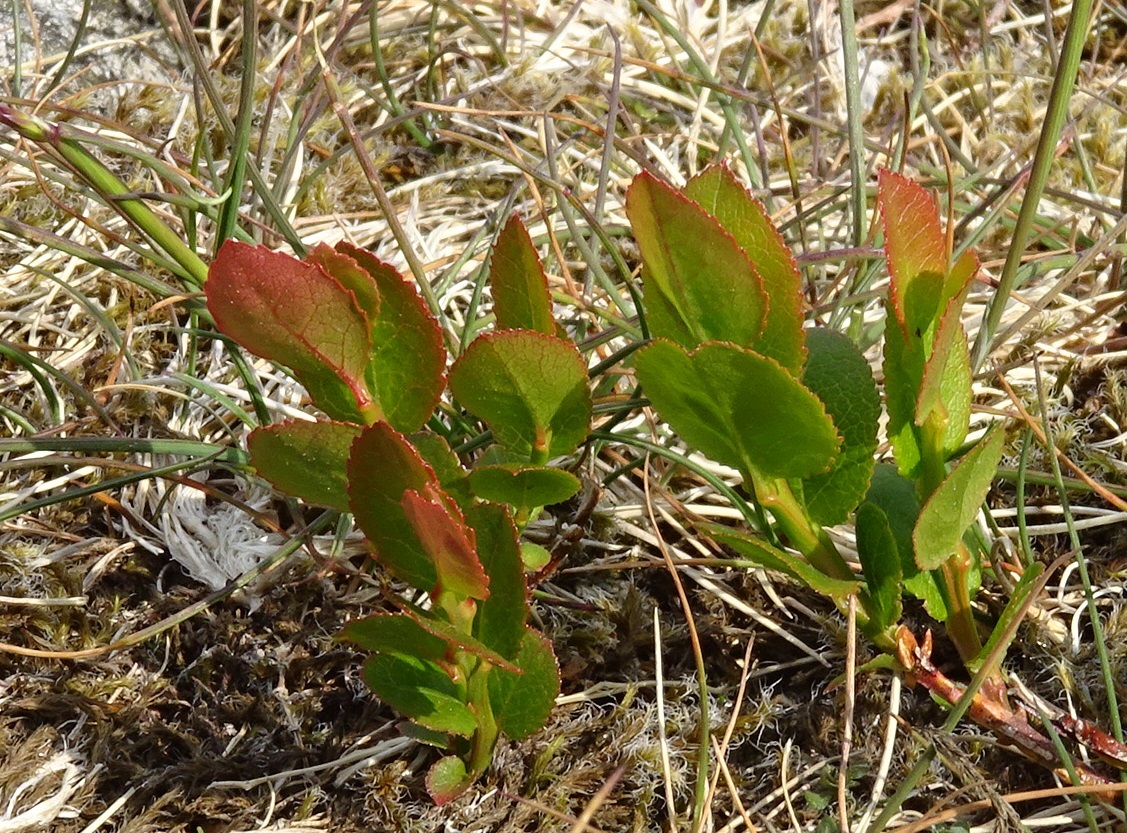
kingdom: Plantae
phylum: Tracheophyta
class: Magnoliopsida
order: Ericales
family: Ericaceae
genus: Vaccinium
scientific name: Vaccinium myrtillus
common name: Bilberry
